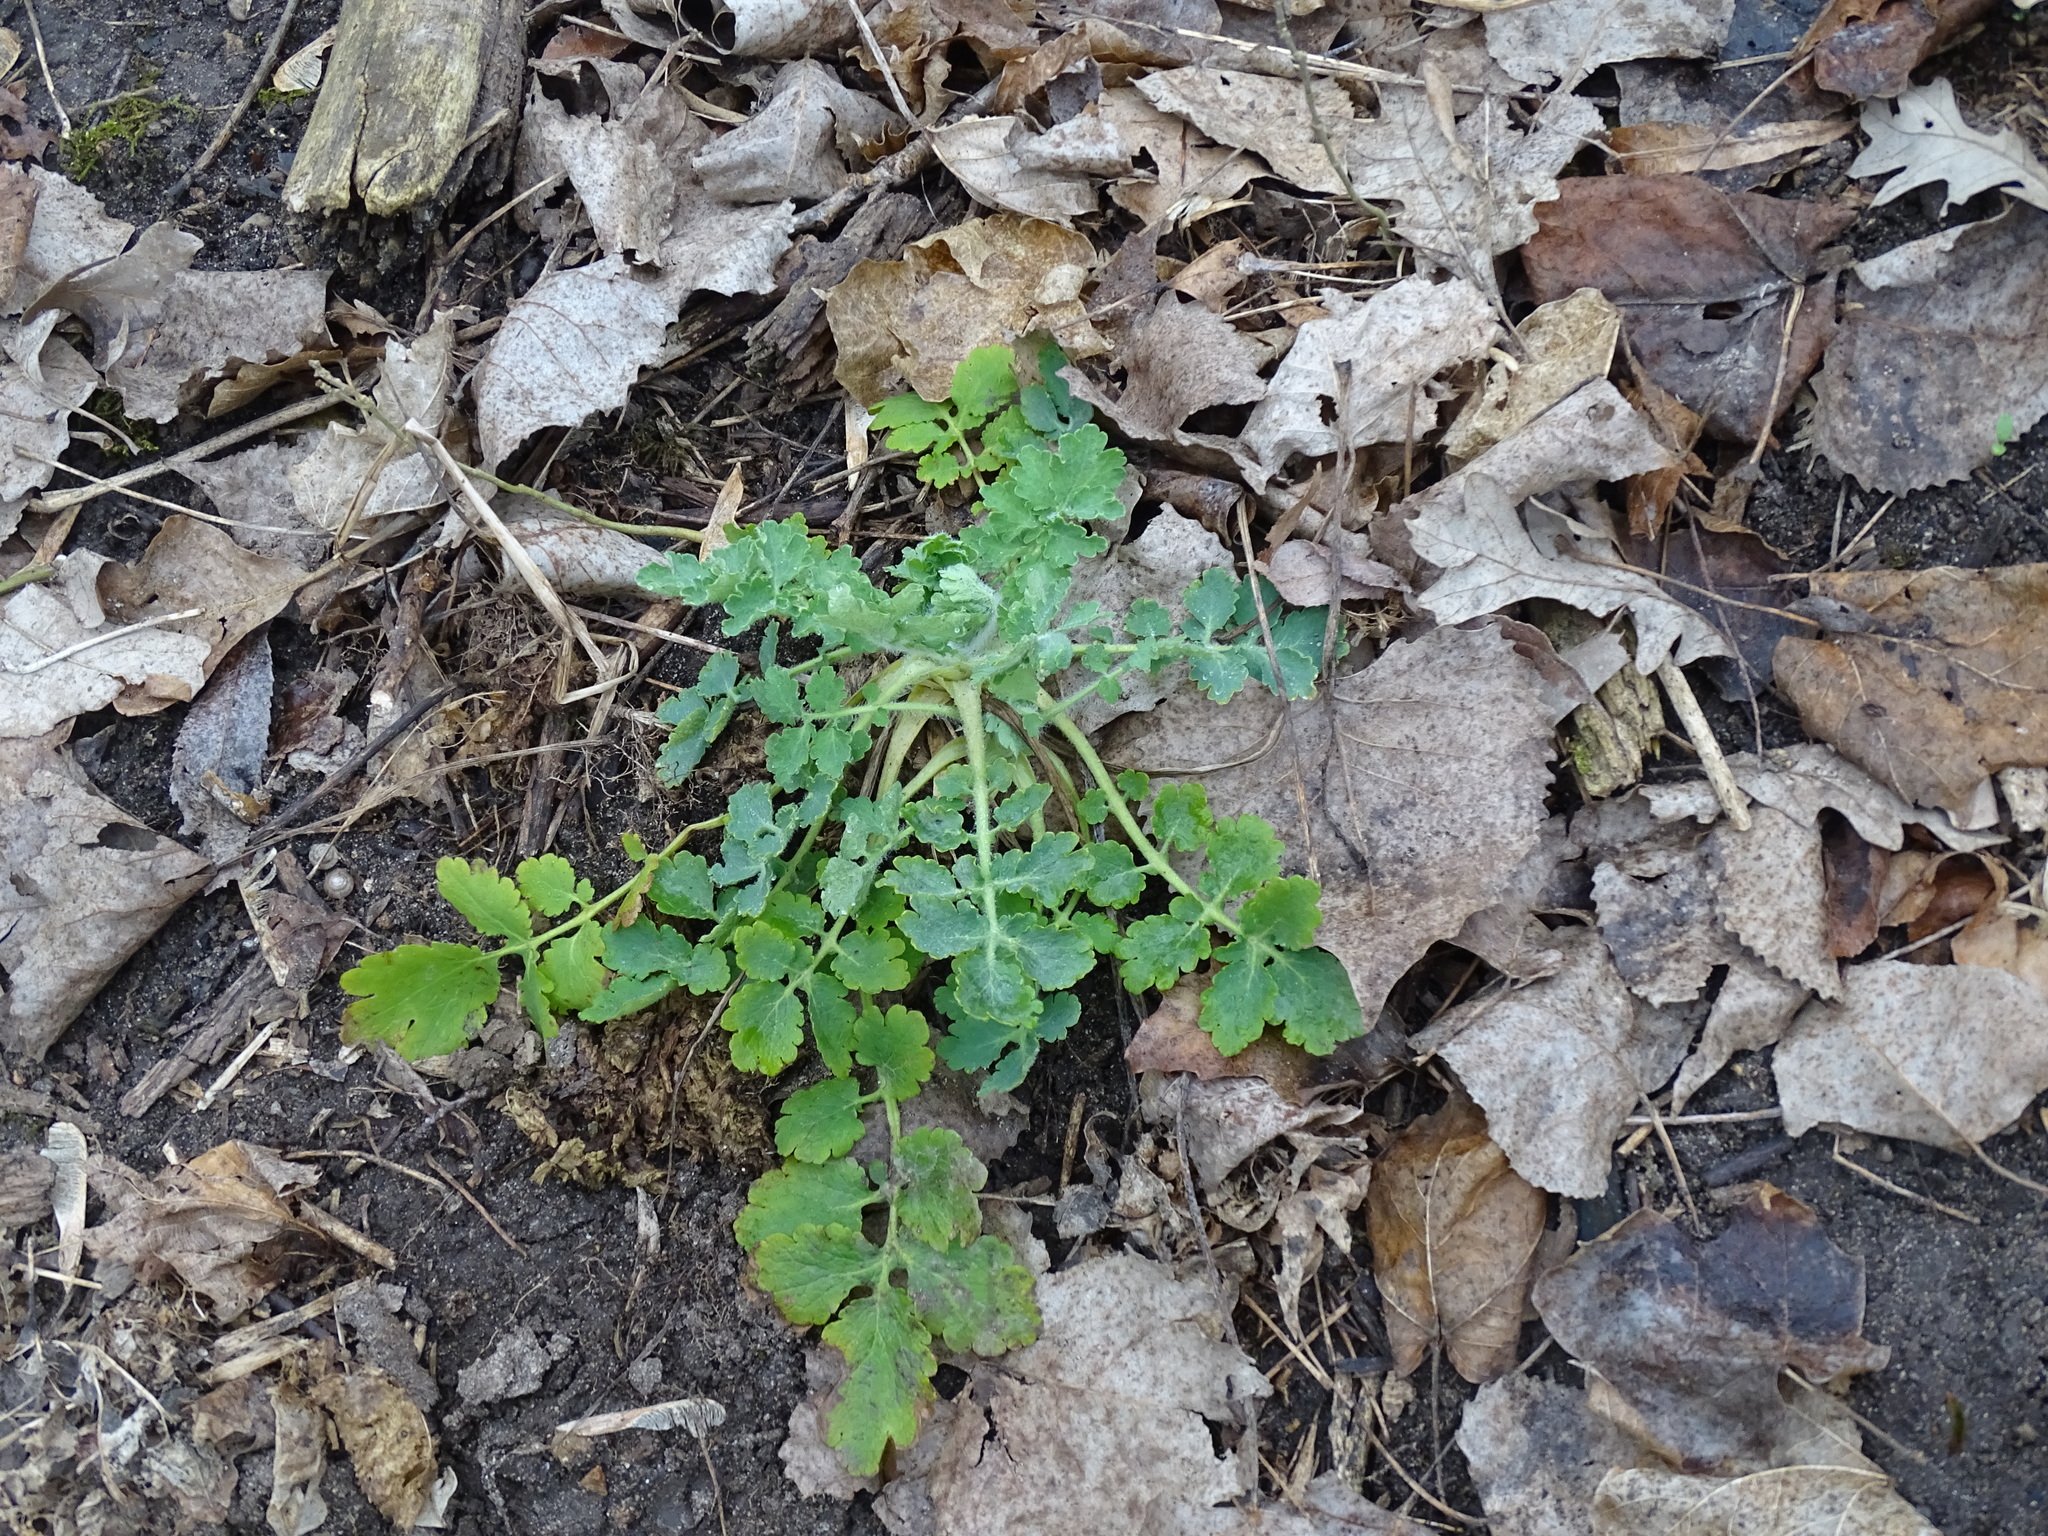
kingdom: Plantae
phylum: Tracheophyta
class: Magnoliopsida
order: Ranunculales
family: Papaveraceae
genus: Chelidonium
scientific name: Chelidonium majus
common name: Greater celandine
